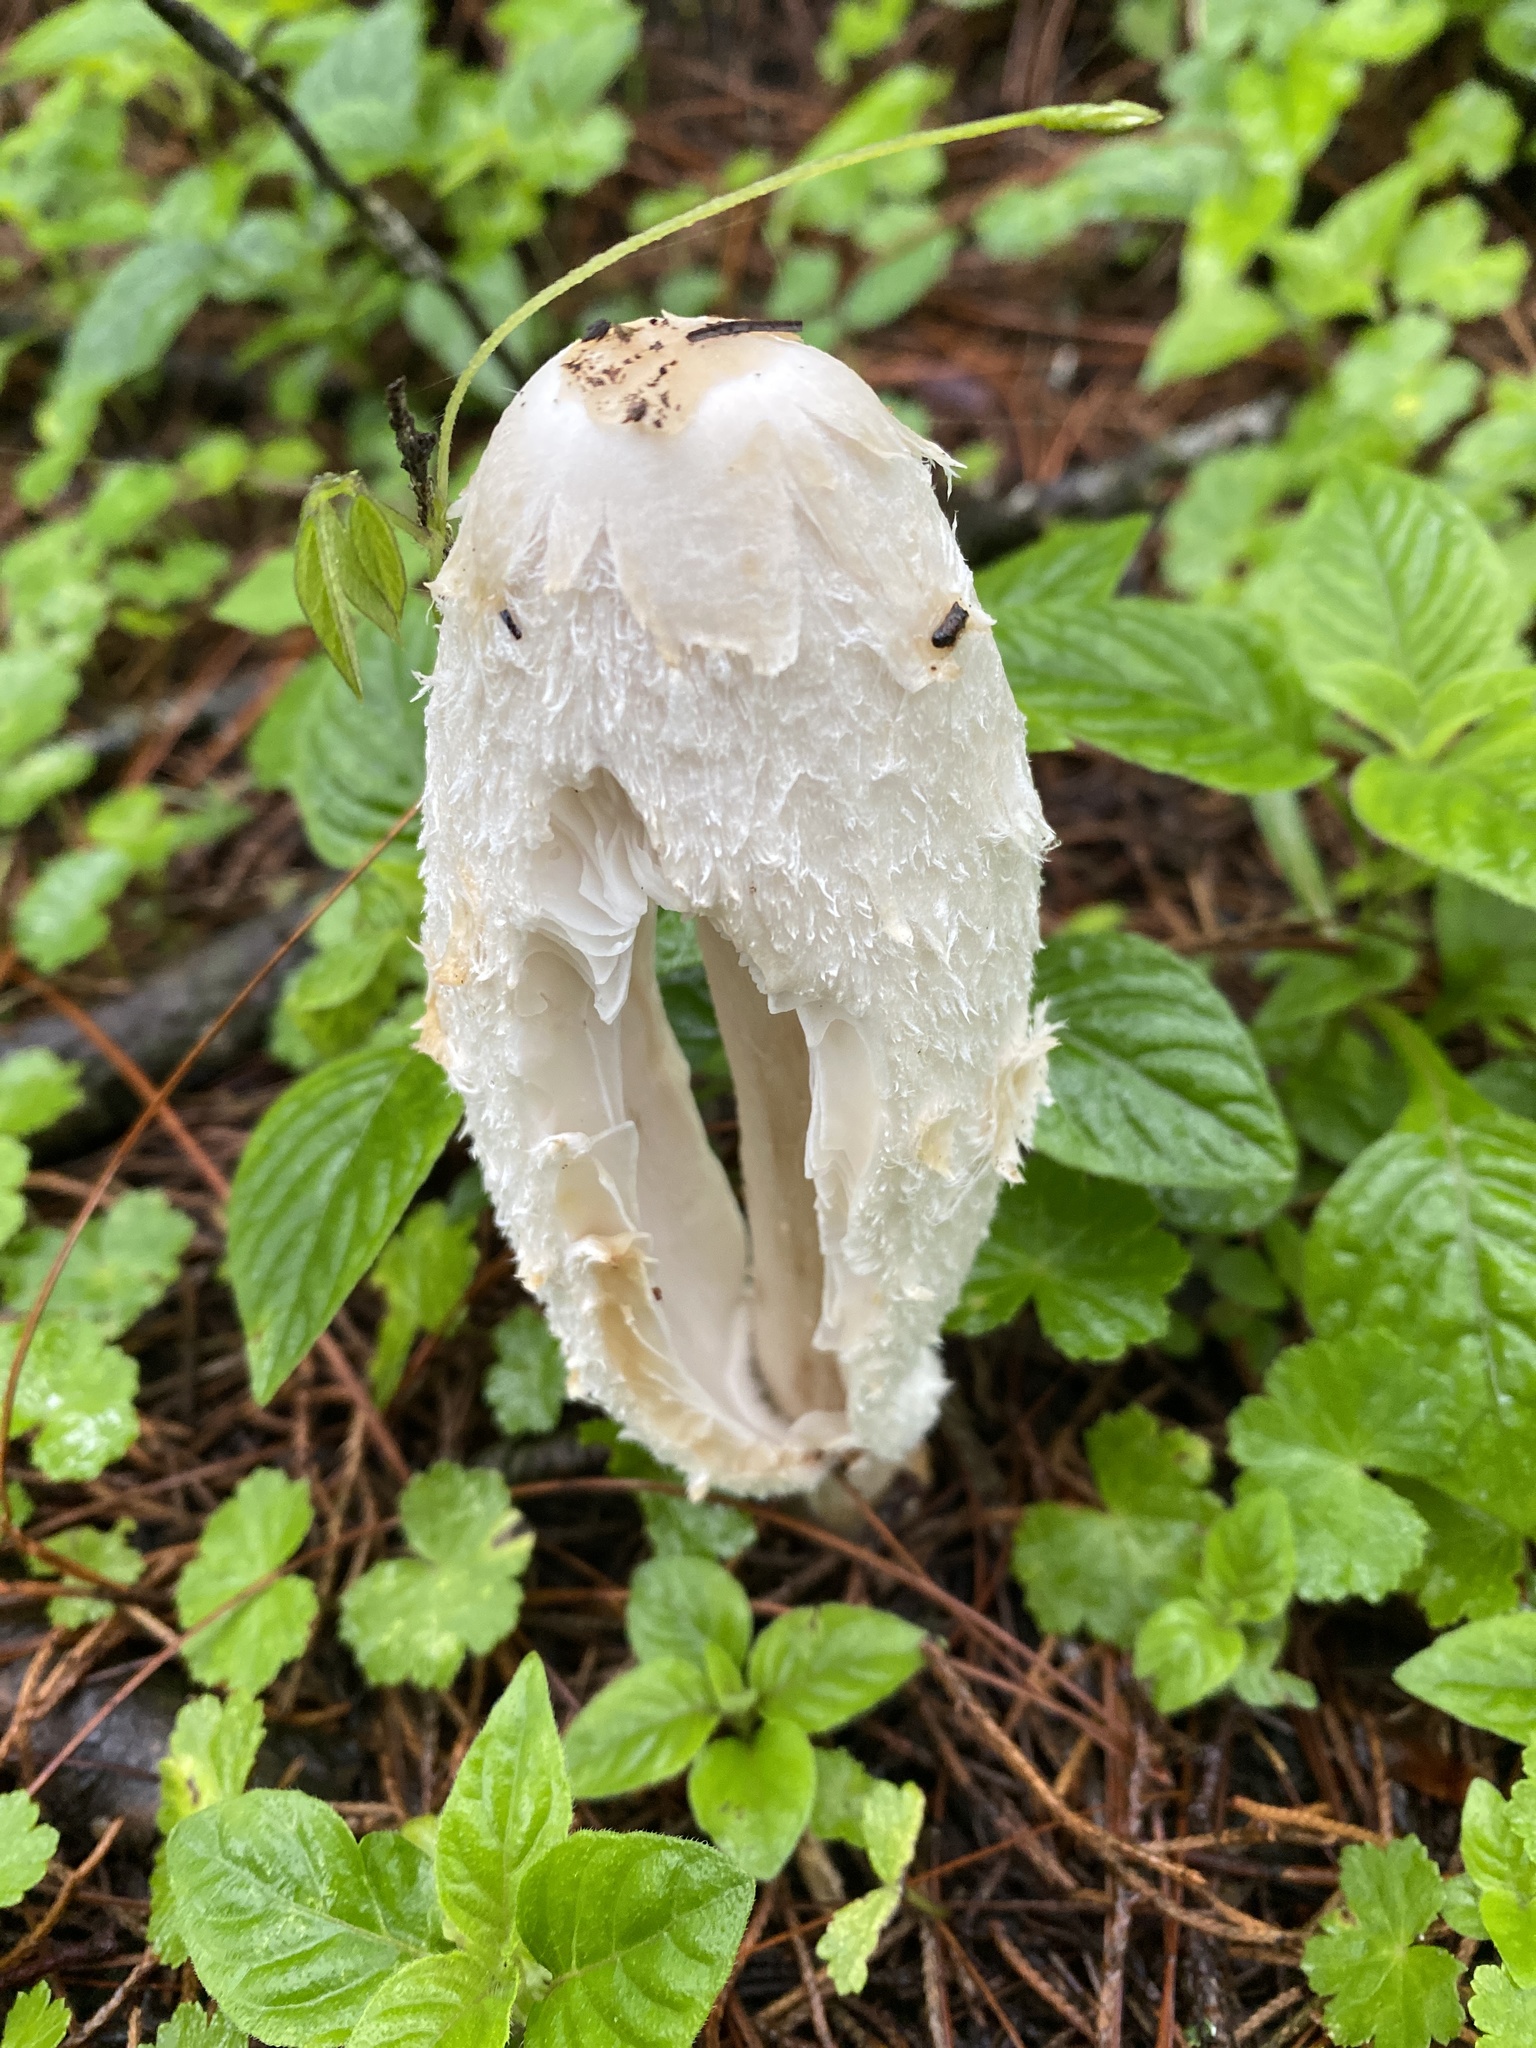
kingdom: Fungi
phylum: Basidiomycota
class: Agaricomycetes
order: Agaricales
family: Agaricaceae
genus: Coprinus
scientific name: Coprinus comatus
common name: Lawyer's wig
